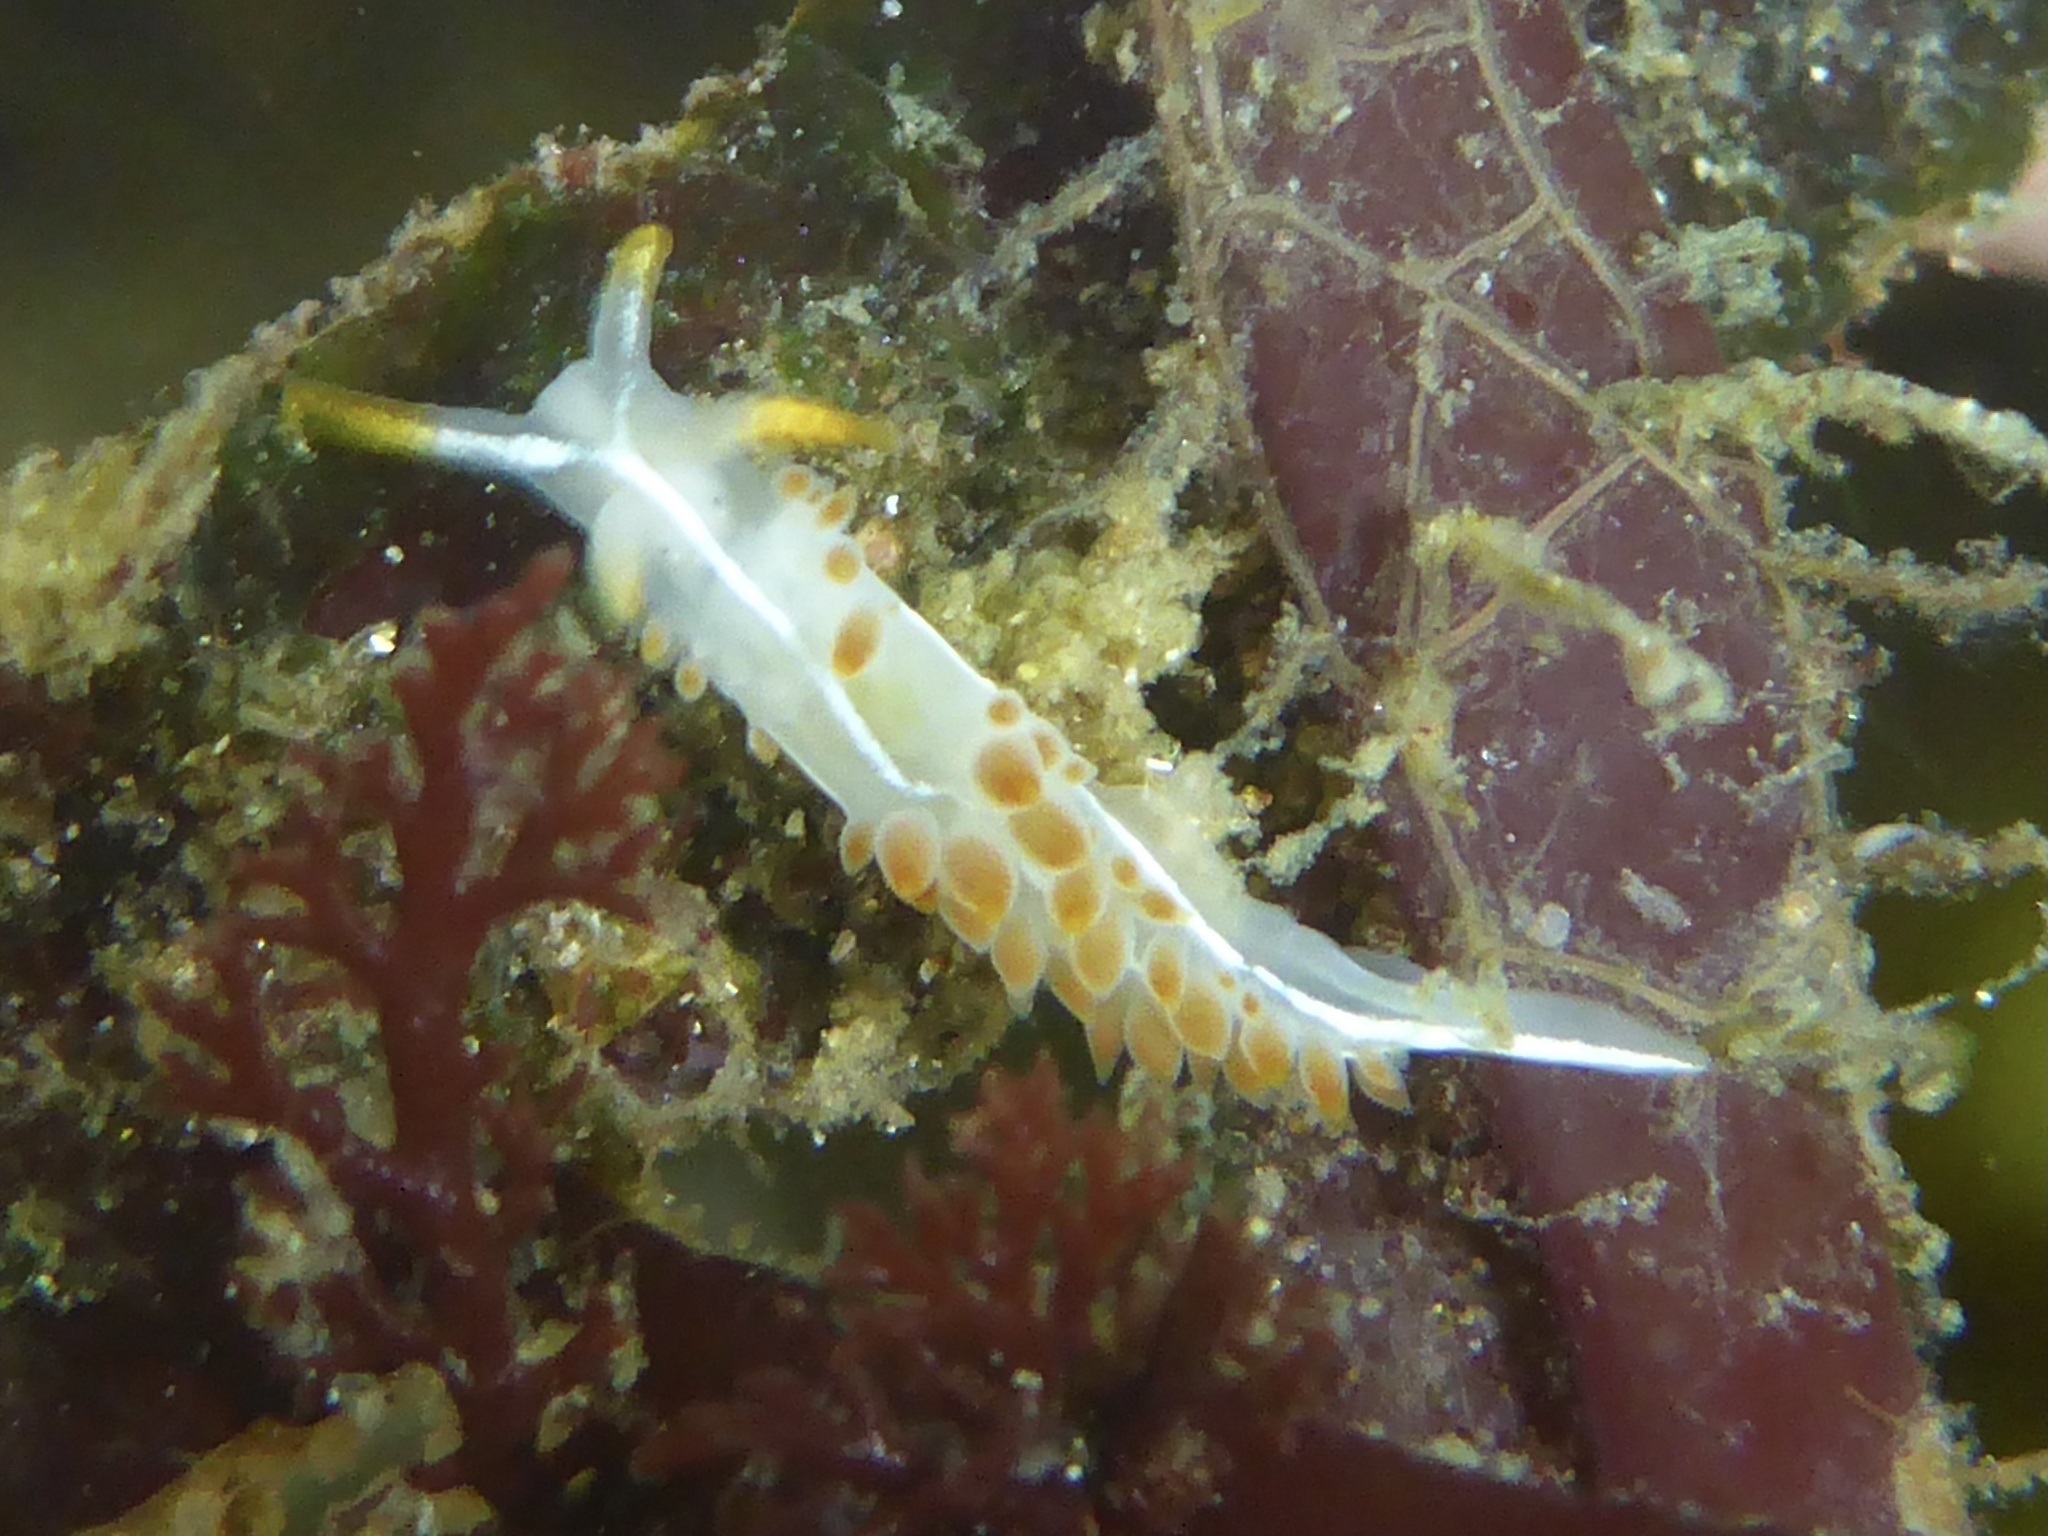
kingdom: Animalia
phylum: Mollusca
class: Gastropoda
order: Nudibranchia
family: Coryphellidae
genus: Coryphella
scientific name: Coryphella trilineata
